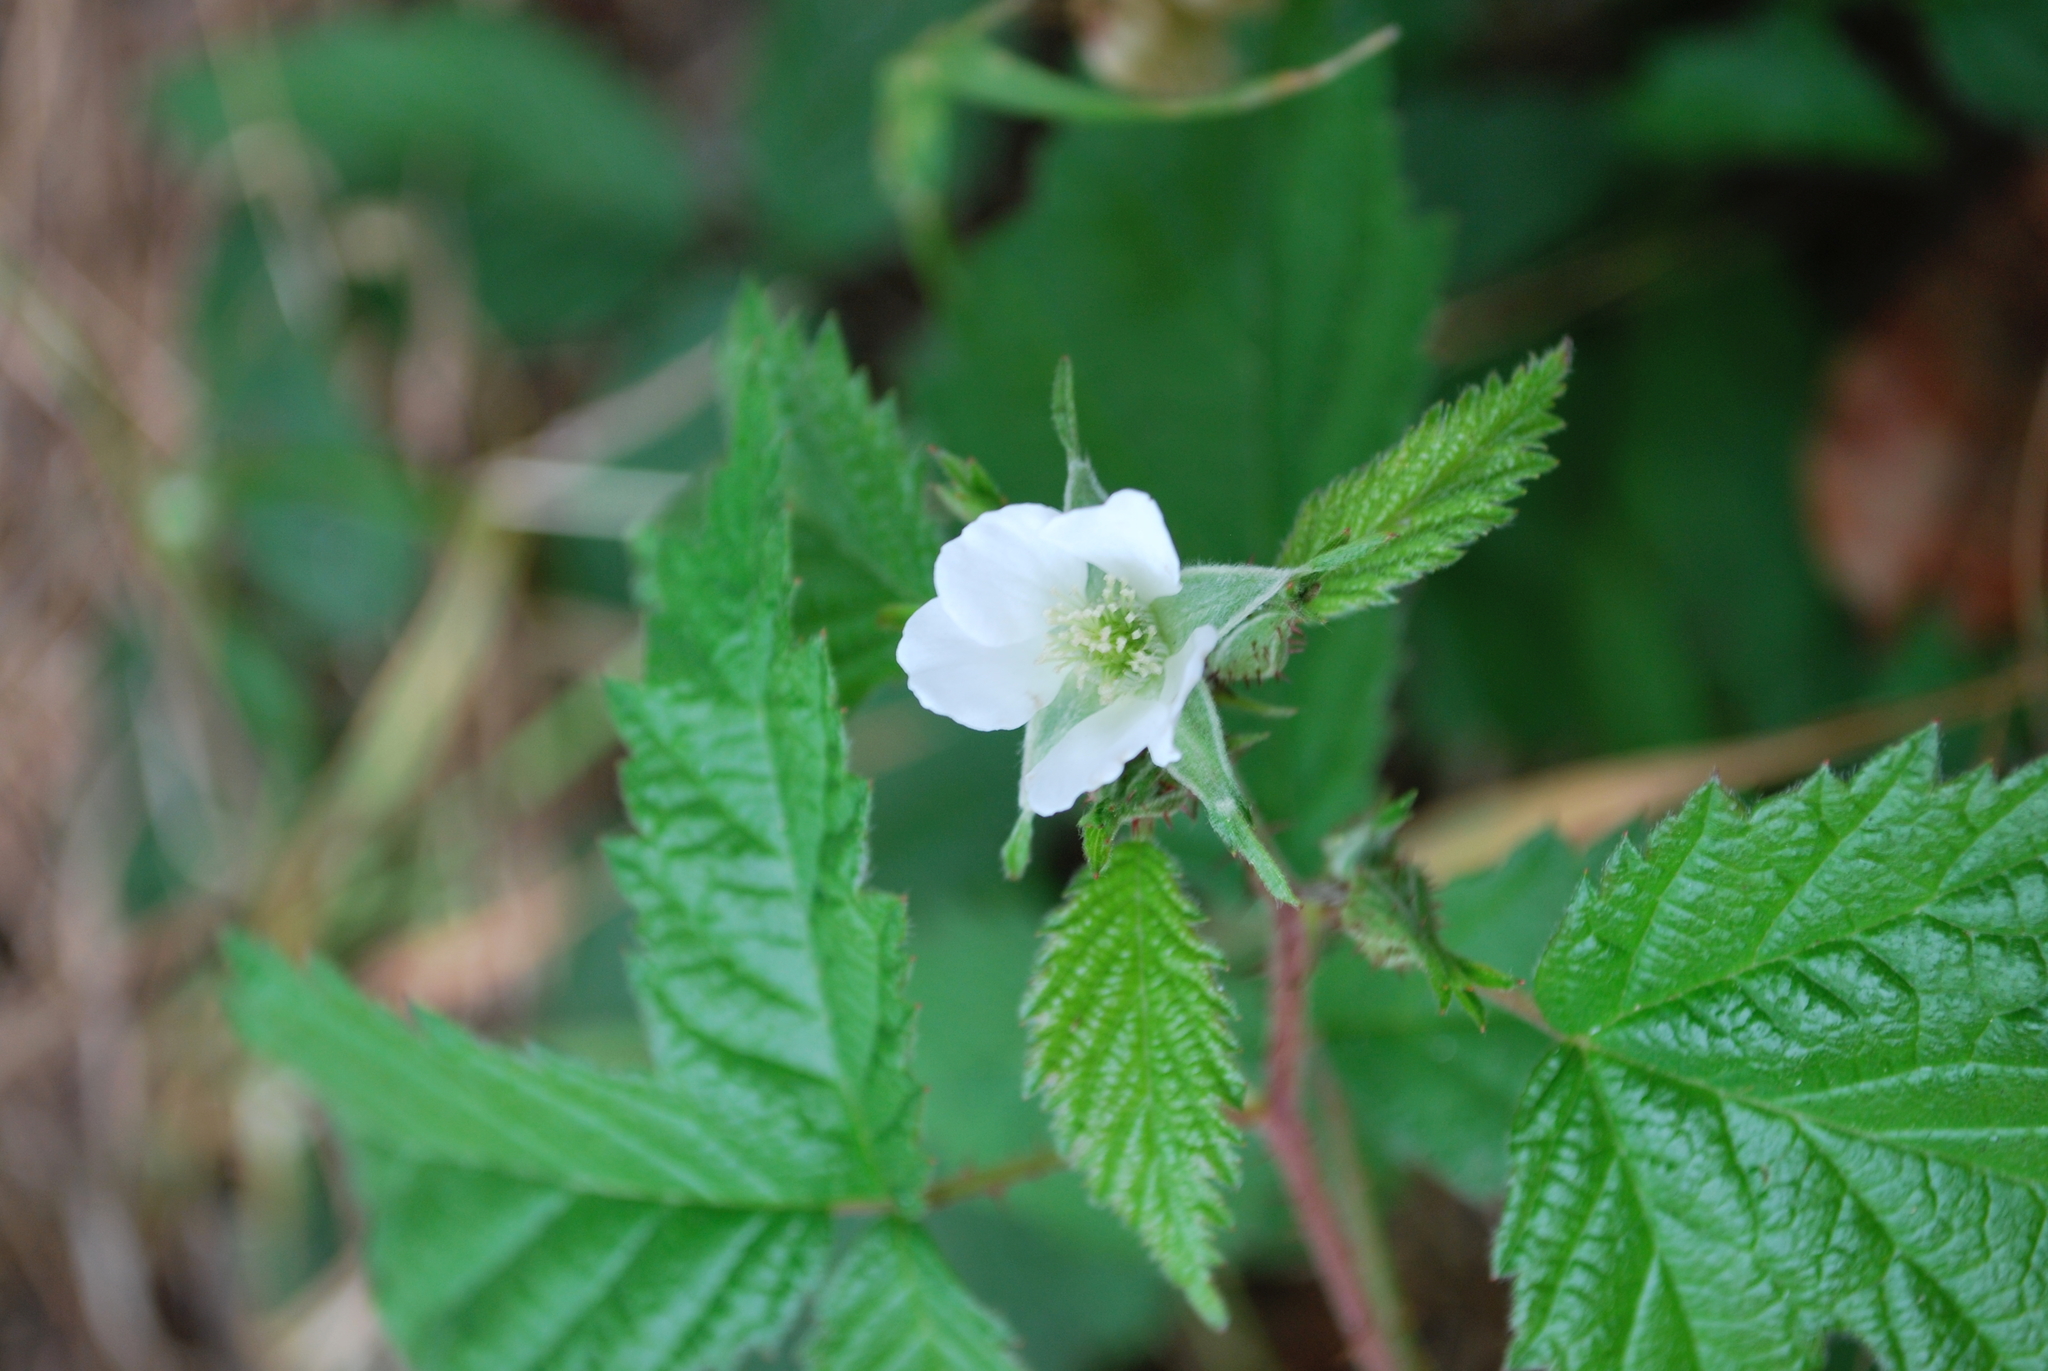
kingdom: Plantae
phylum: Tracheophyta
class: Magnoliopsida
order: Rosales
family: Rosaceae
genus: Rubus
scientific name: Rubus ursinus
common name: Pacific blackberry
